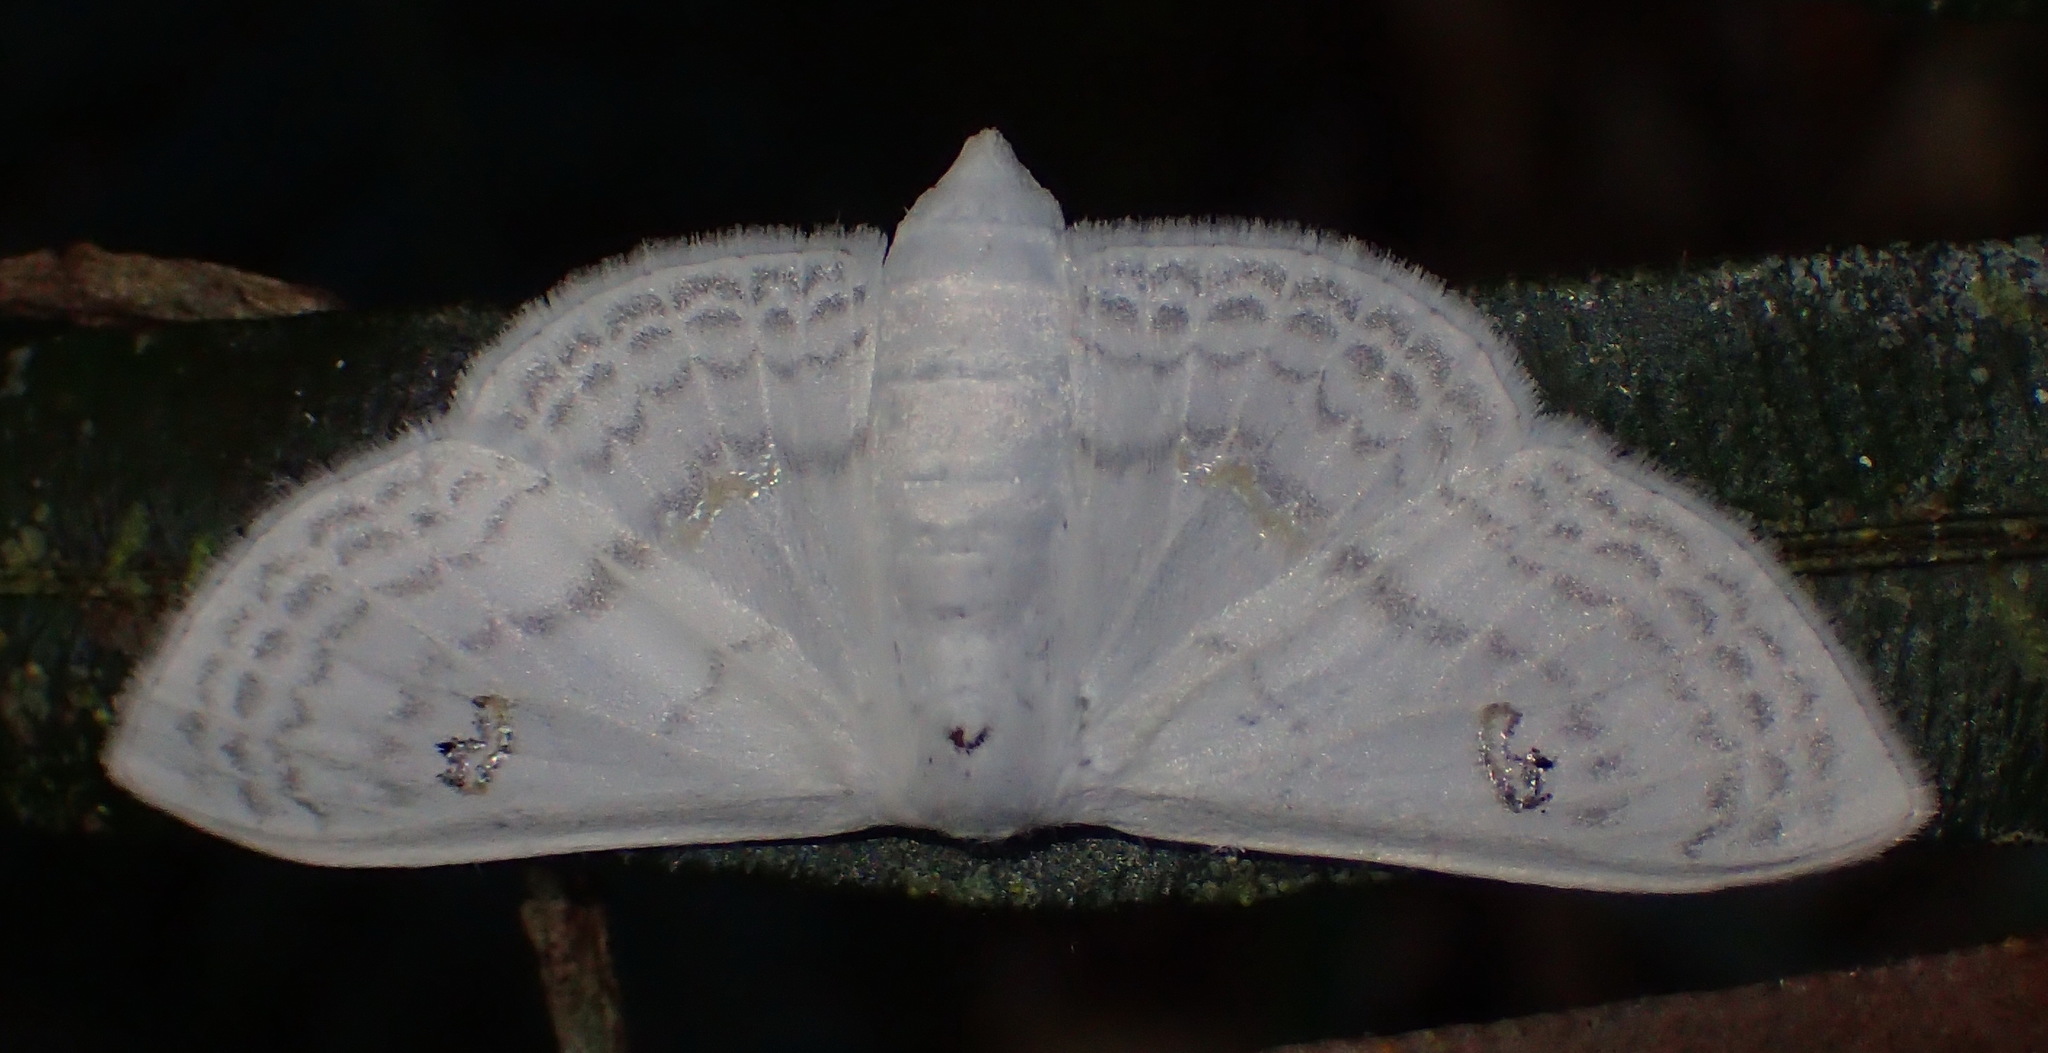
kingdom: Animalia
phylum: Arthropoda
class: Insecta
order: Lepidoptera
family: Geometridae
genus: Problepsis
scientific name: Problepsis aegretta
